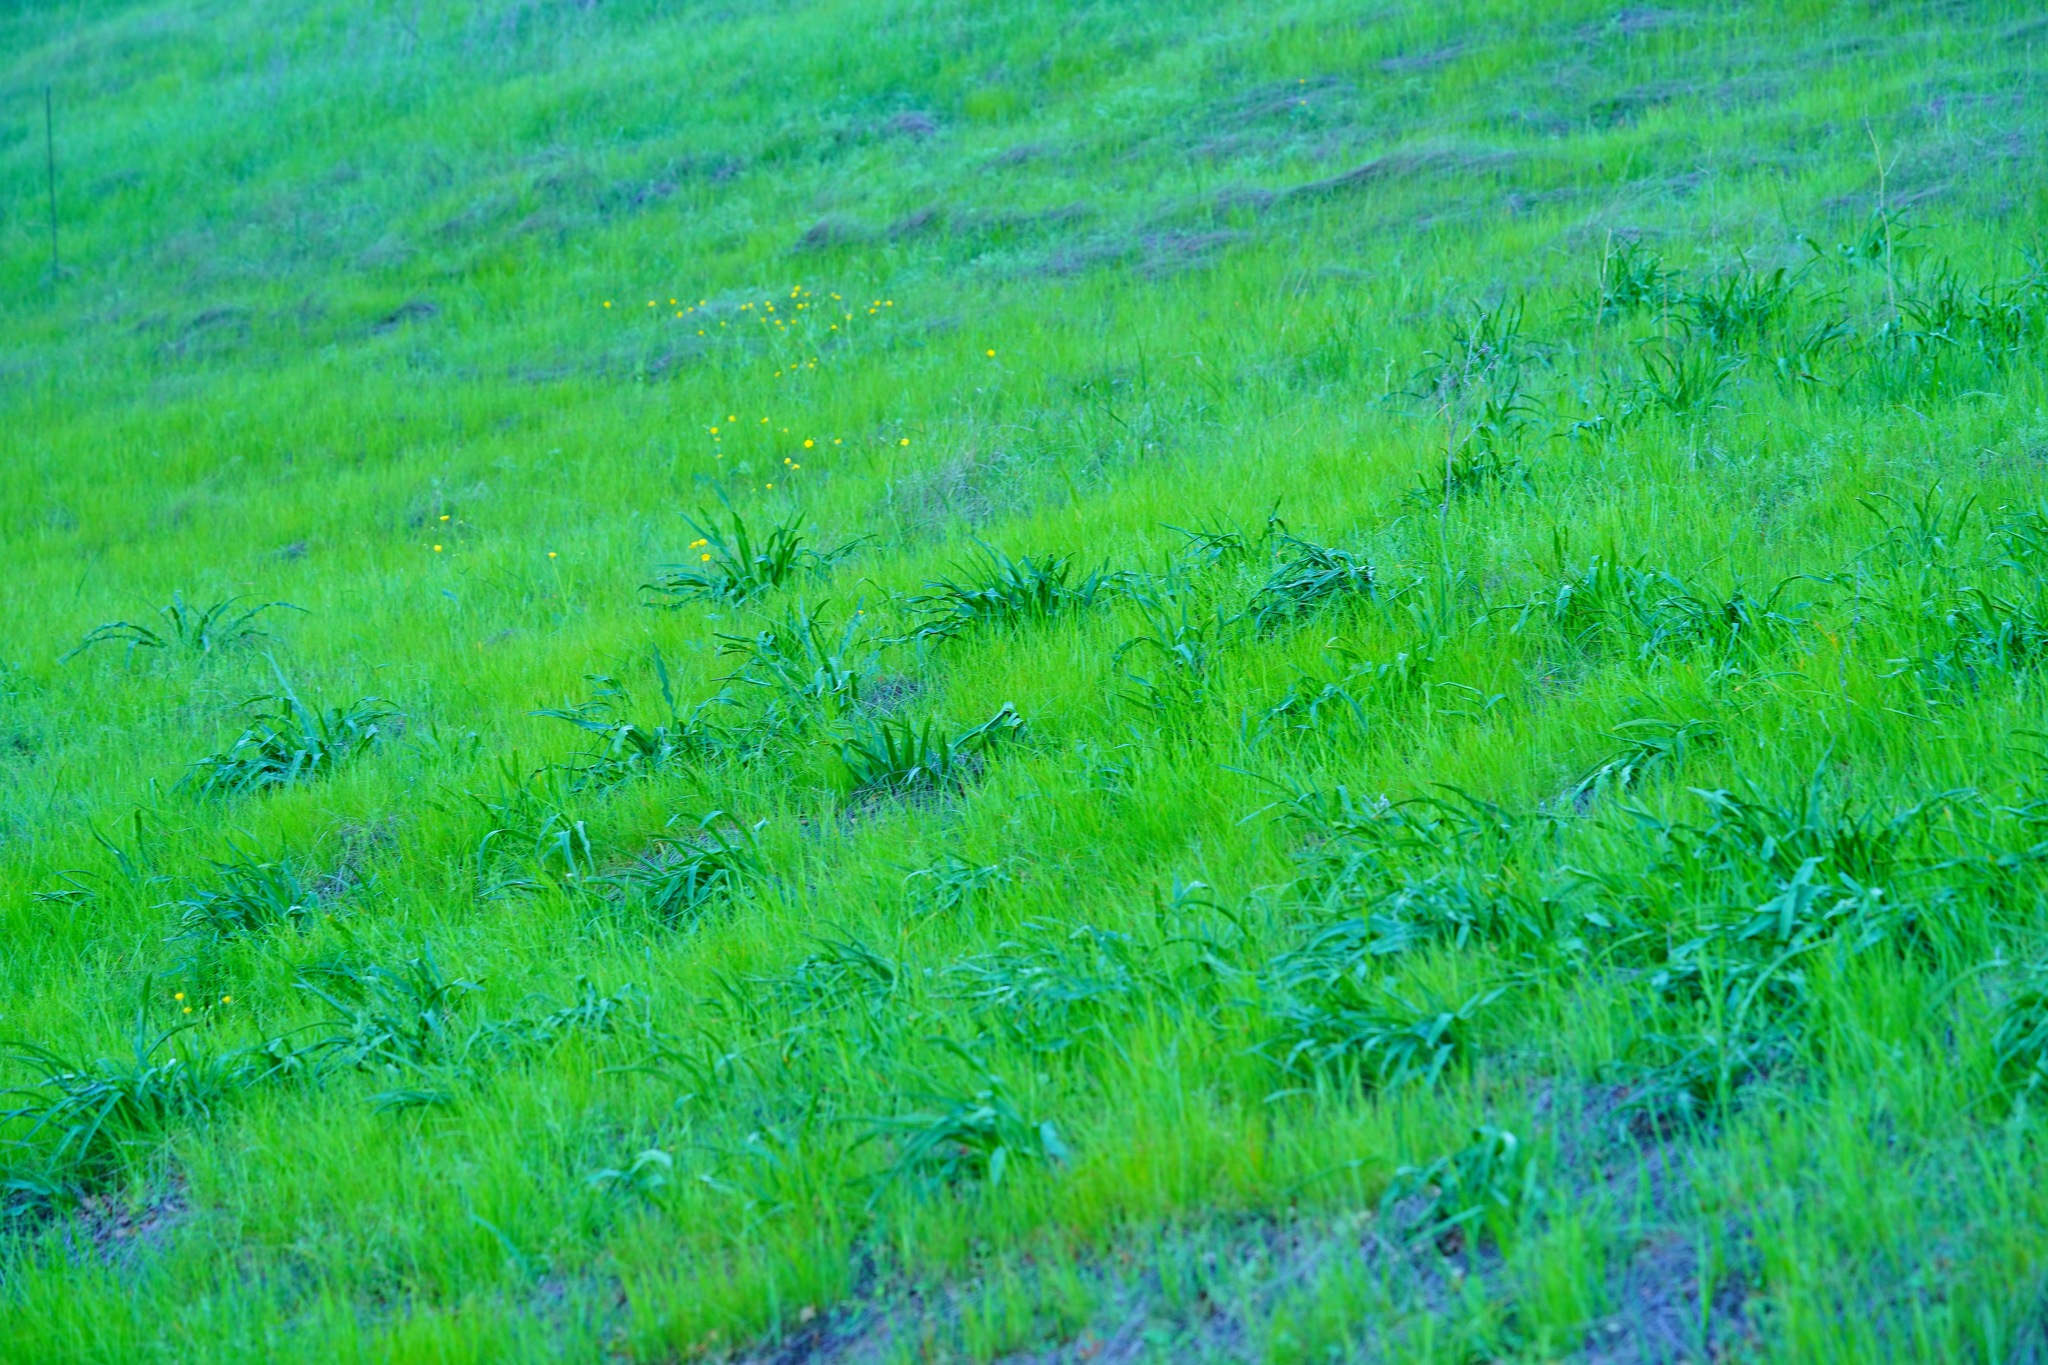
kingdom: Plantae
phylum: Tracheophyta
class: Liliopsida
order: Asparagales
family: Asparagaceae
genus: Chlorogalum
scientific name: Chlorogalum pomeridianum
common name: Amole
